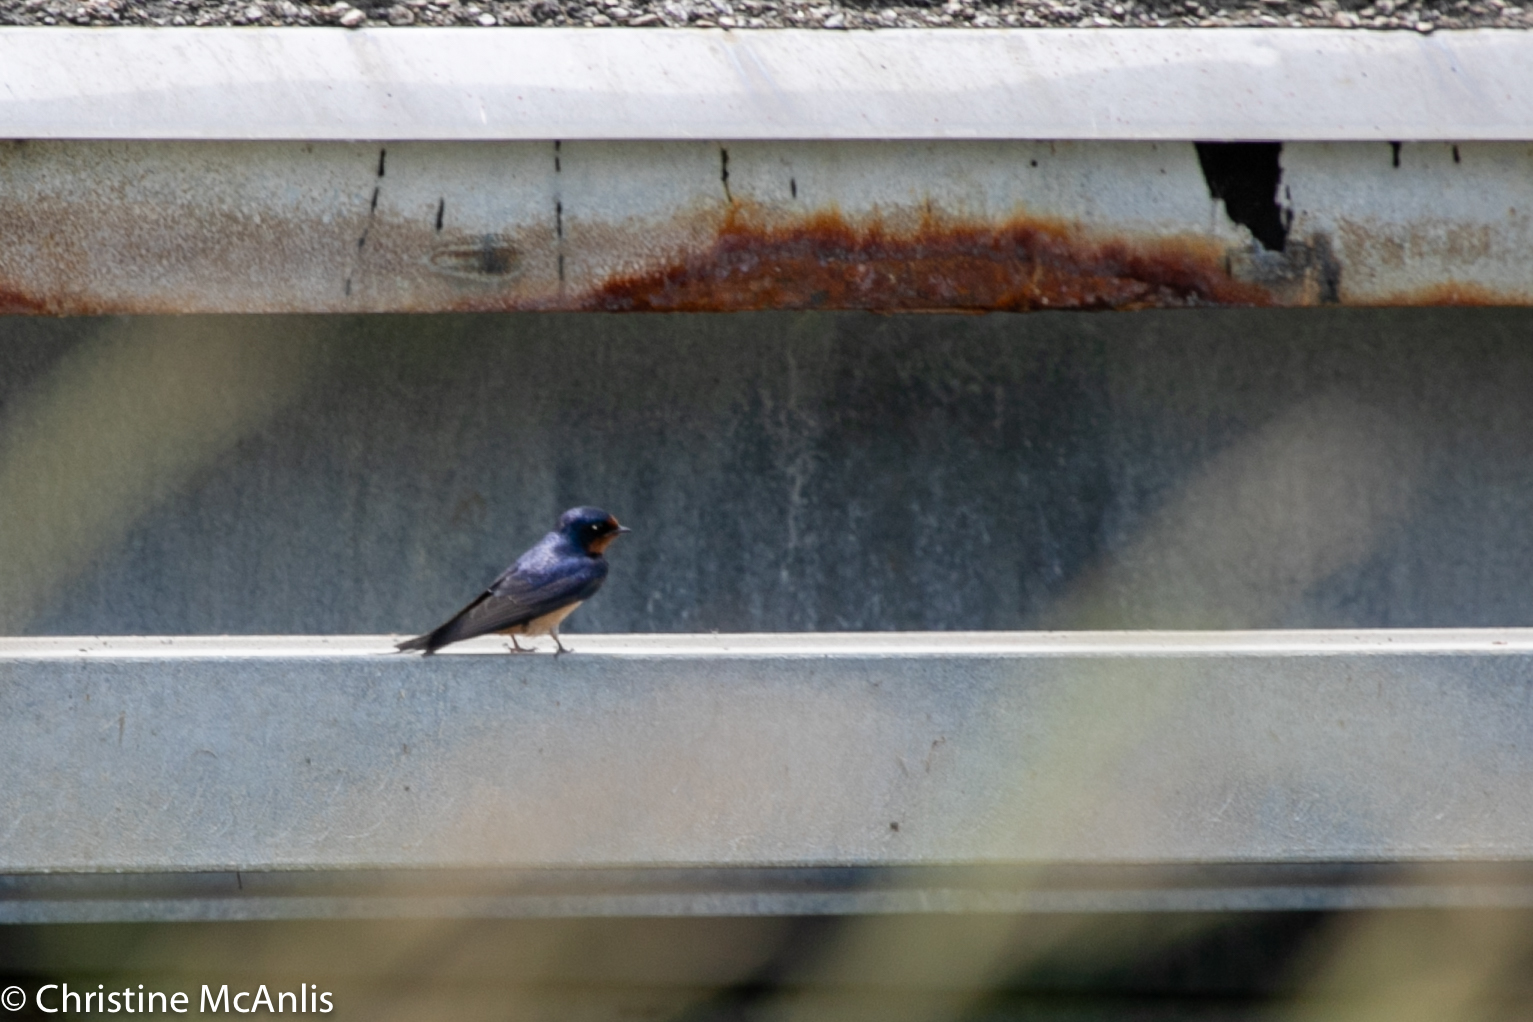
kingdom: Animalia
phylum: Chordata
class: Aves
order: Passeriformes
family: Hirundinidae
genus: Hirundo
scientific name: Hirundo rustica
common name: Barn swallow
